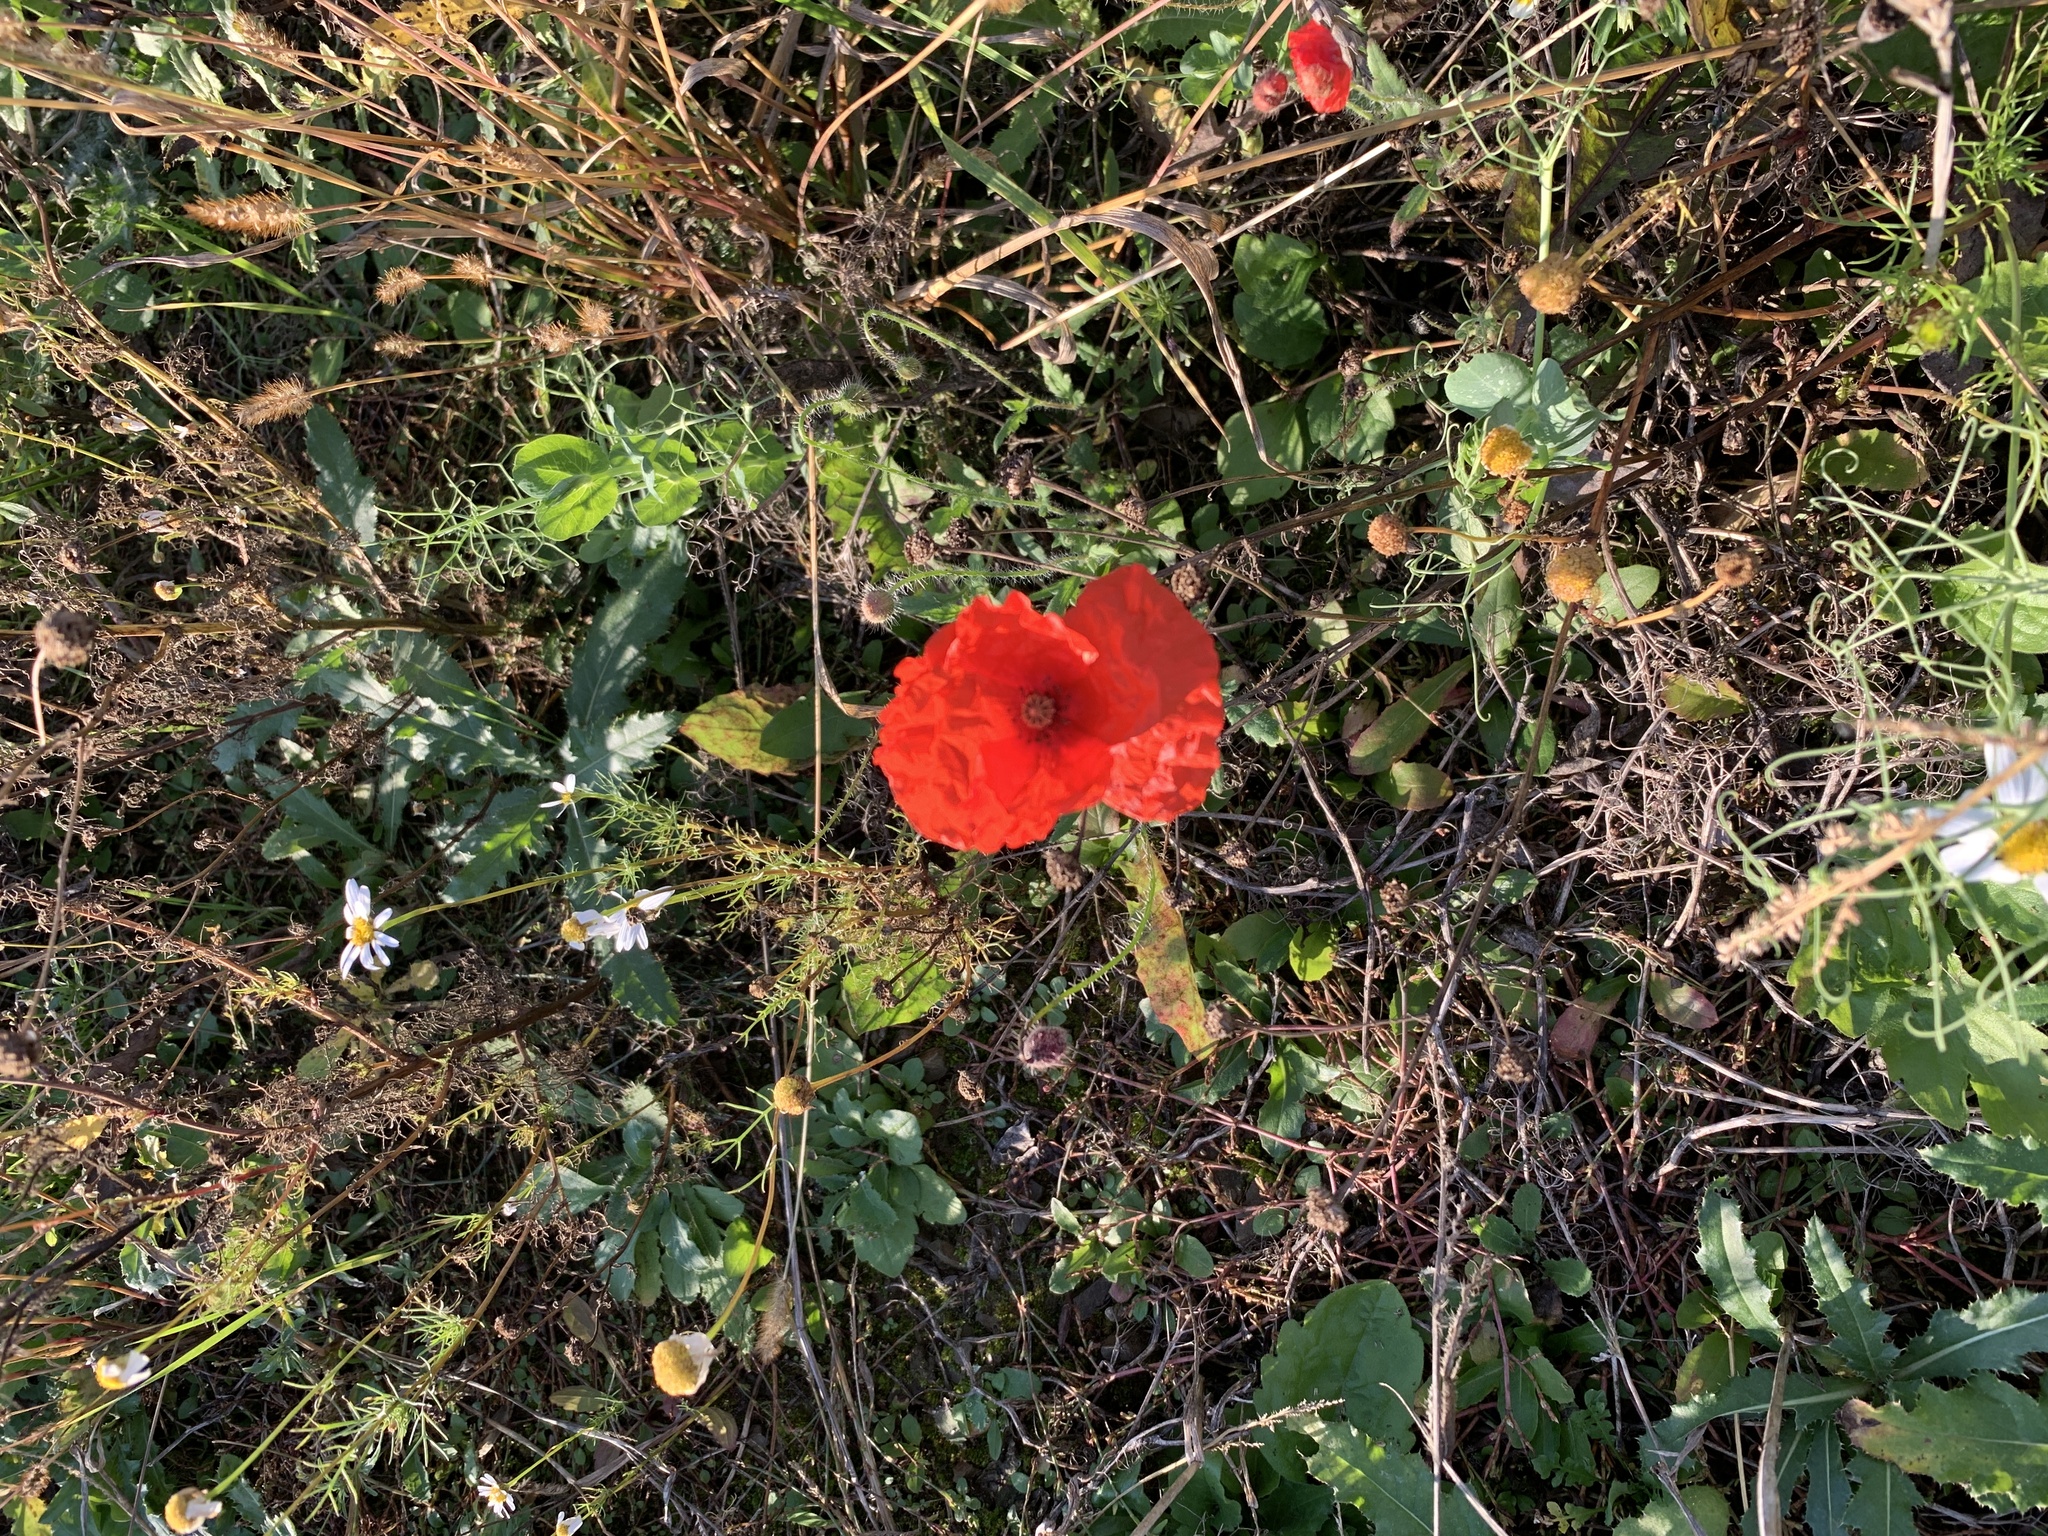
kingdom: Plantae
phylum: Tracheophyta
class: Magnoliopsida
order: Ranunculales
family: Papaveraceae
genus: Papaver
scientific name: Papaver rhoeas
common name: Corn poppy
